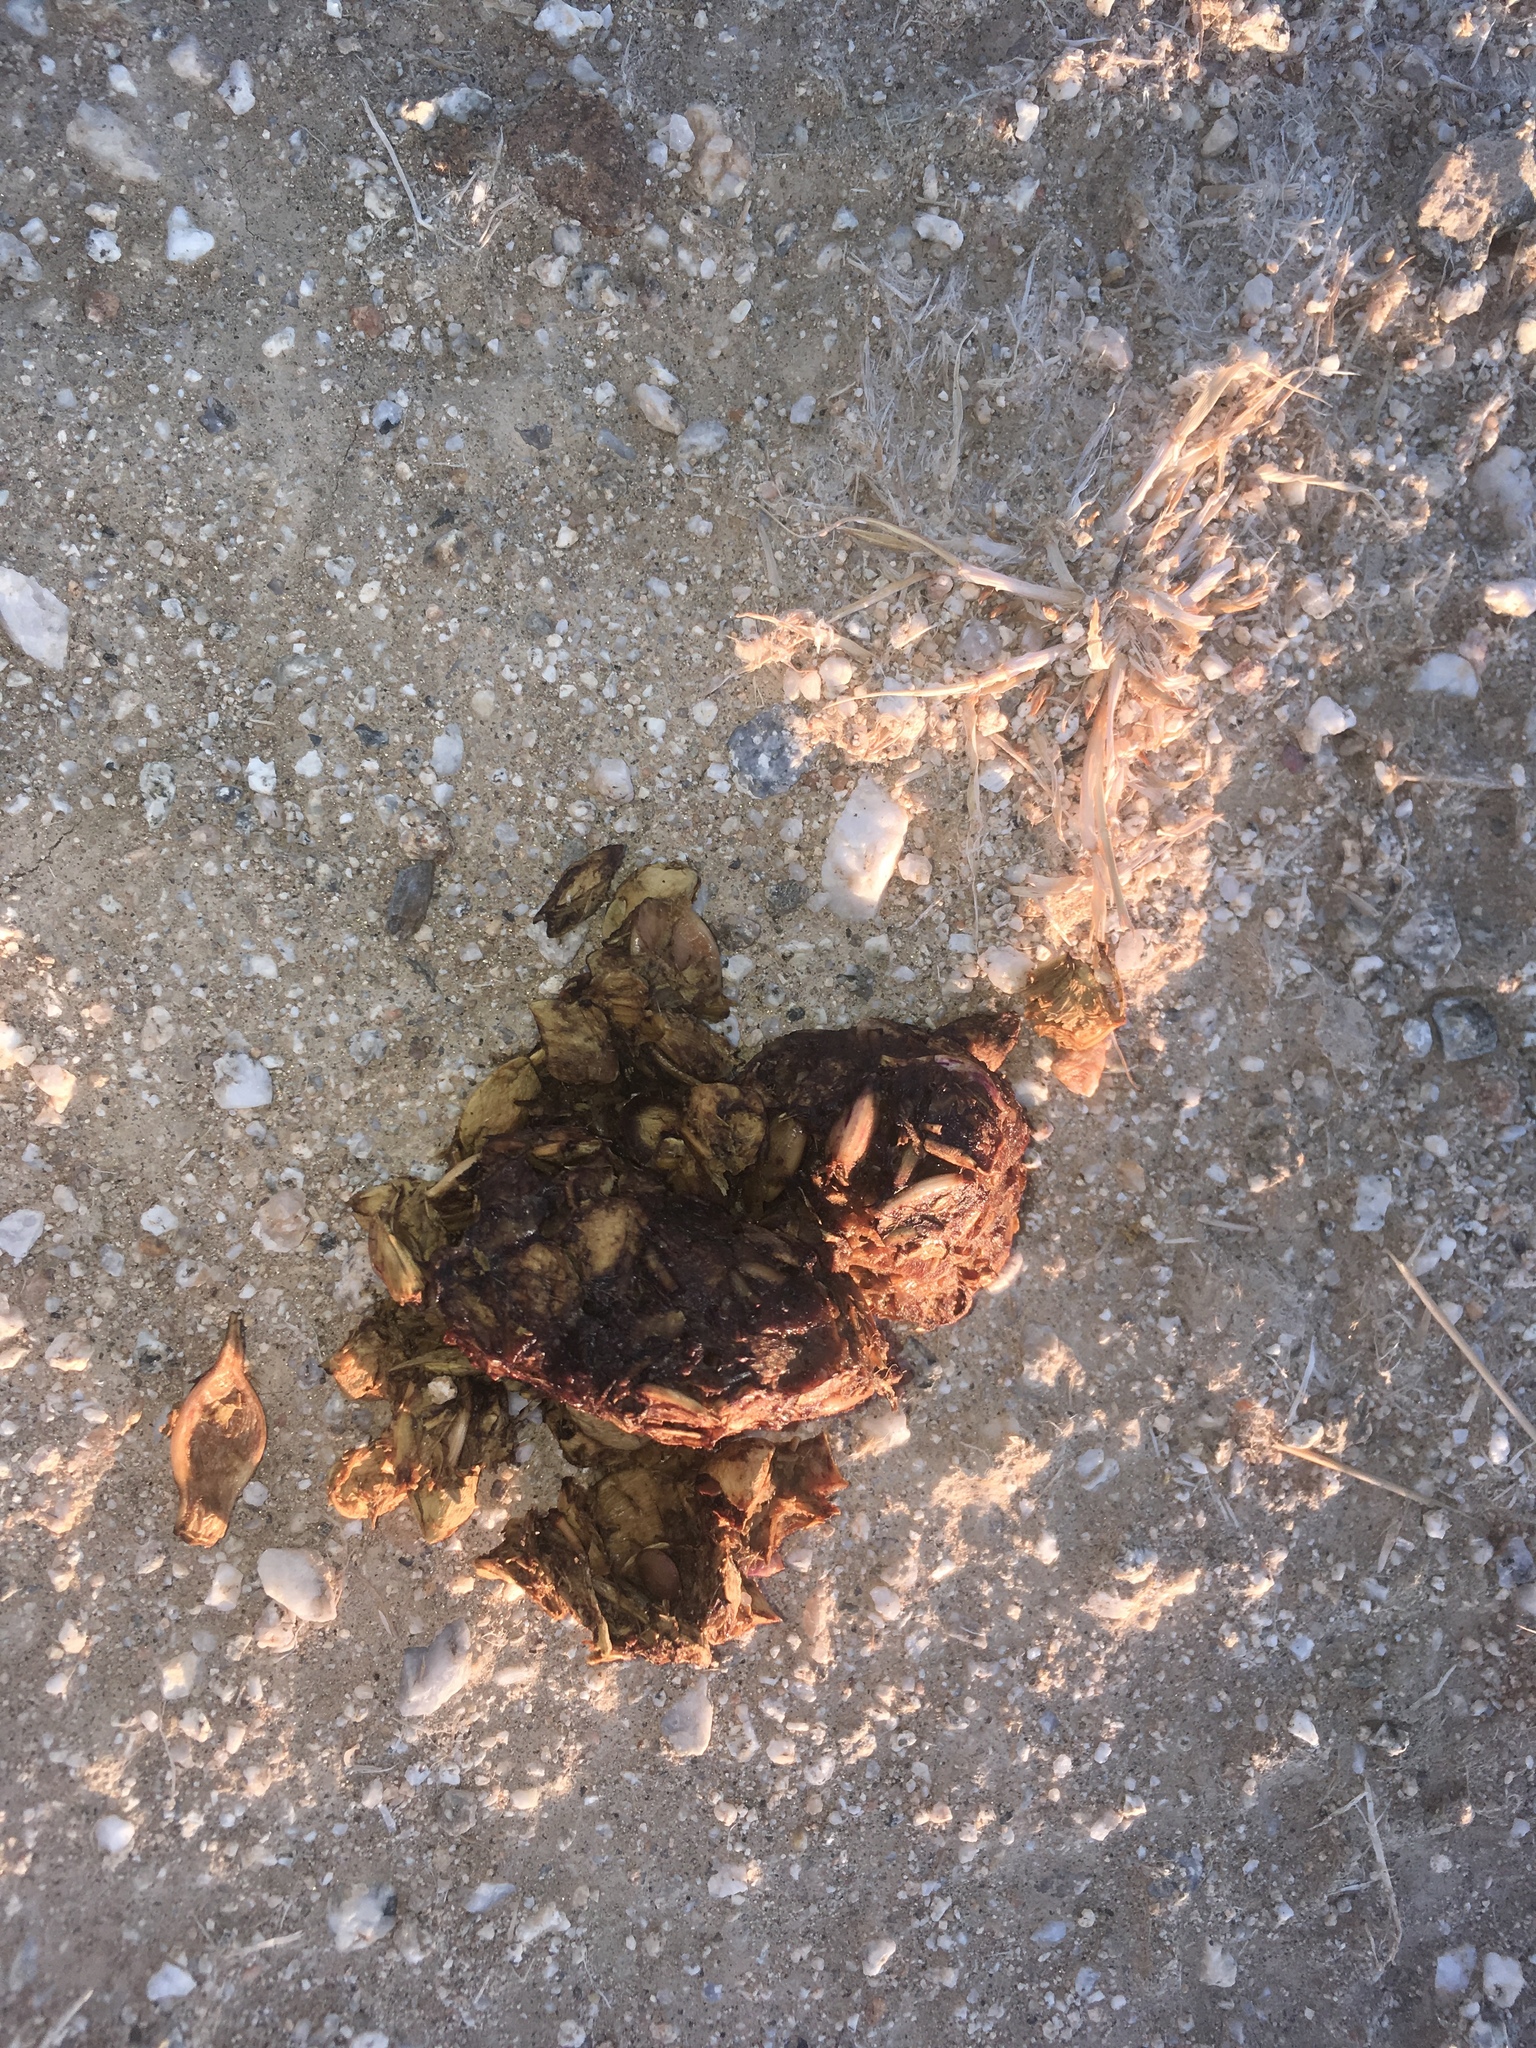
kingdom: Animalia
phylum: Chordata
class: Mammalia
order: Carnivora
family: Canidae
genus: Canis
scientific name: Canis latrans
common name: Coyote
